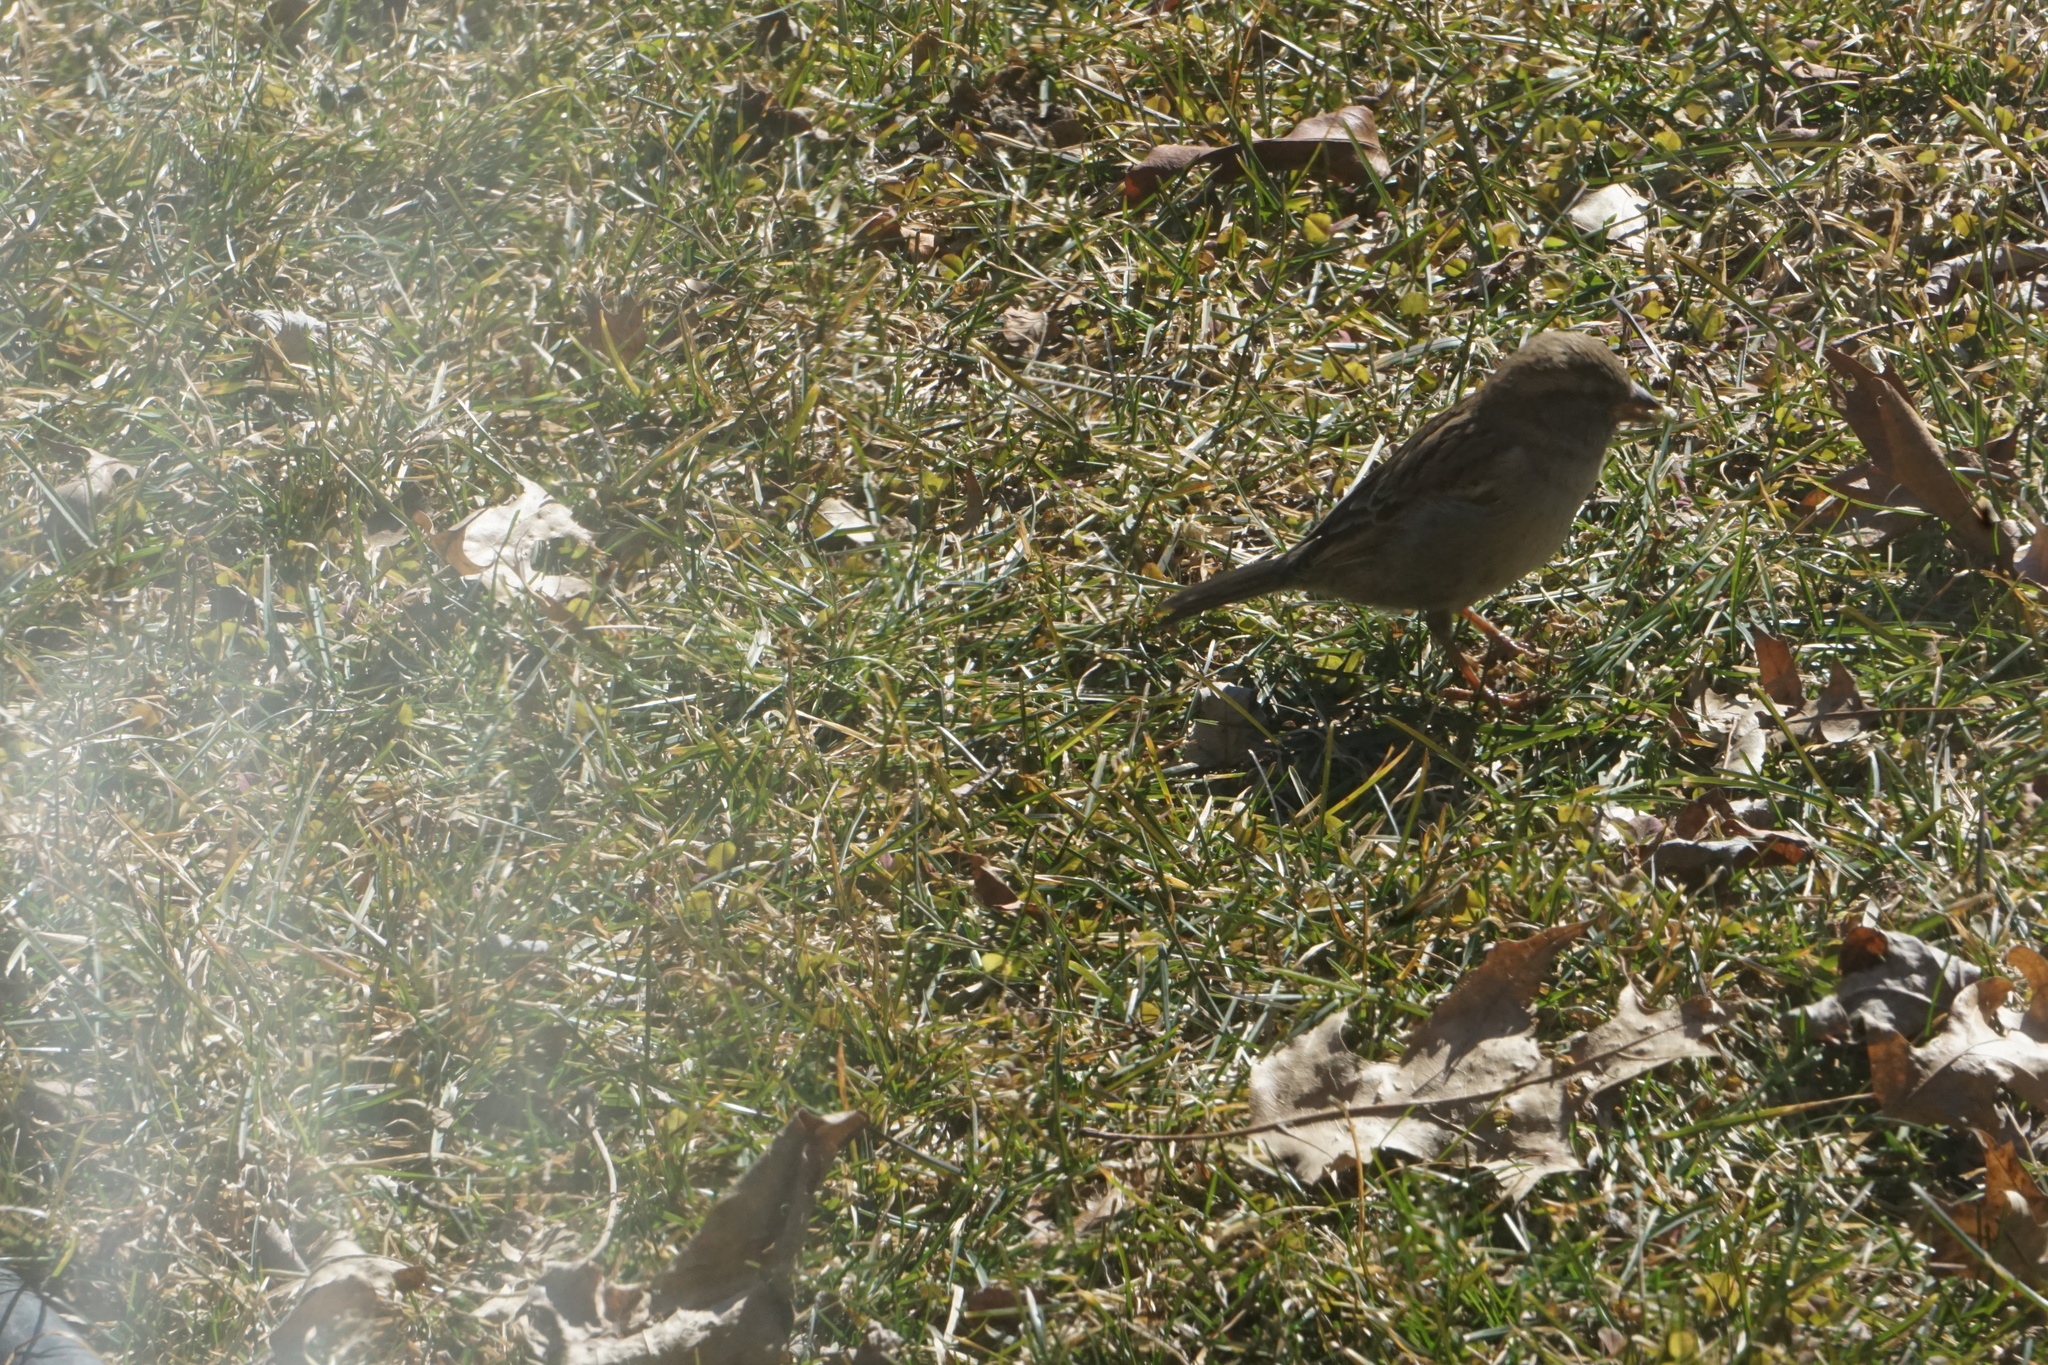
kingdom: Animalia
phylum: Chordata
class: Aves
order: Passeriformes
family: Passeridae
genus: Passer
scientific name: Passer domesticus
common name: House sparrow
